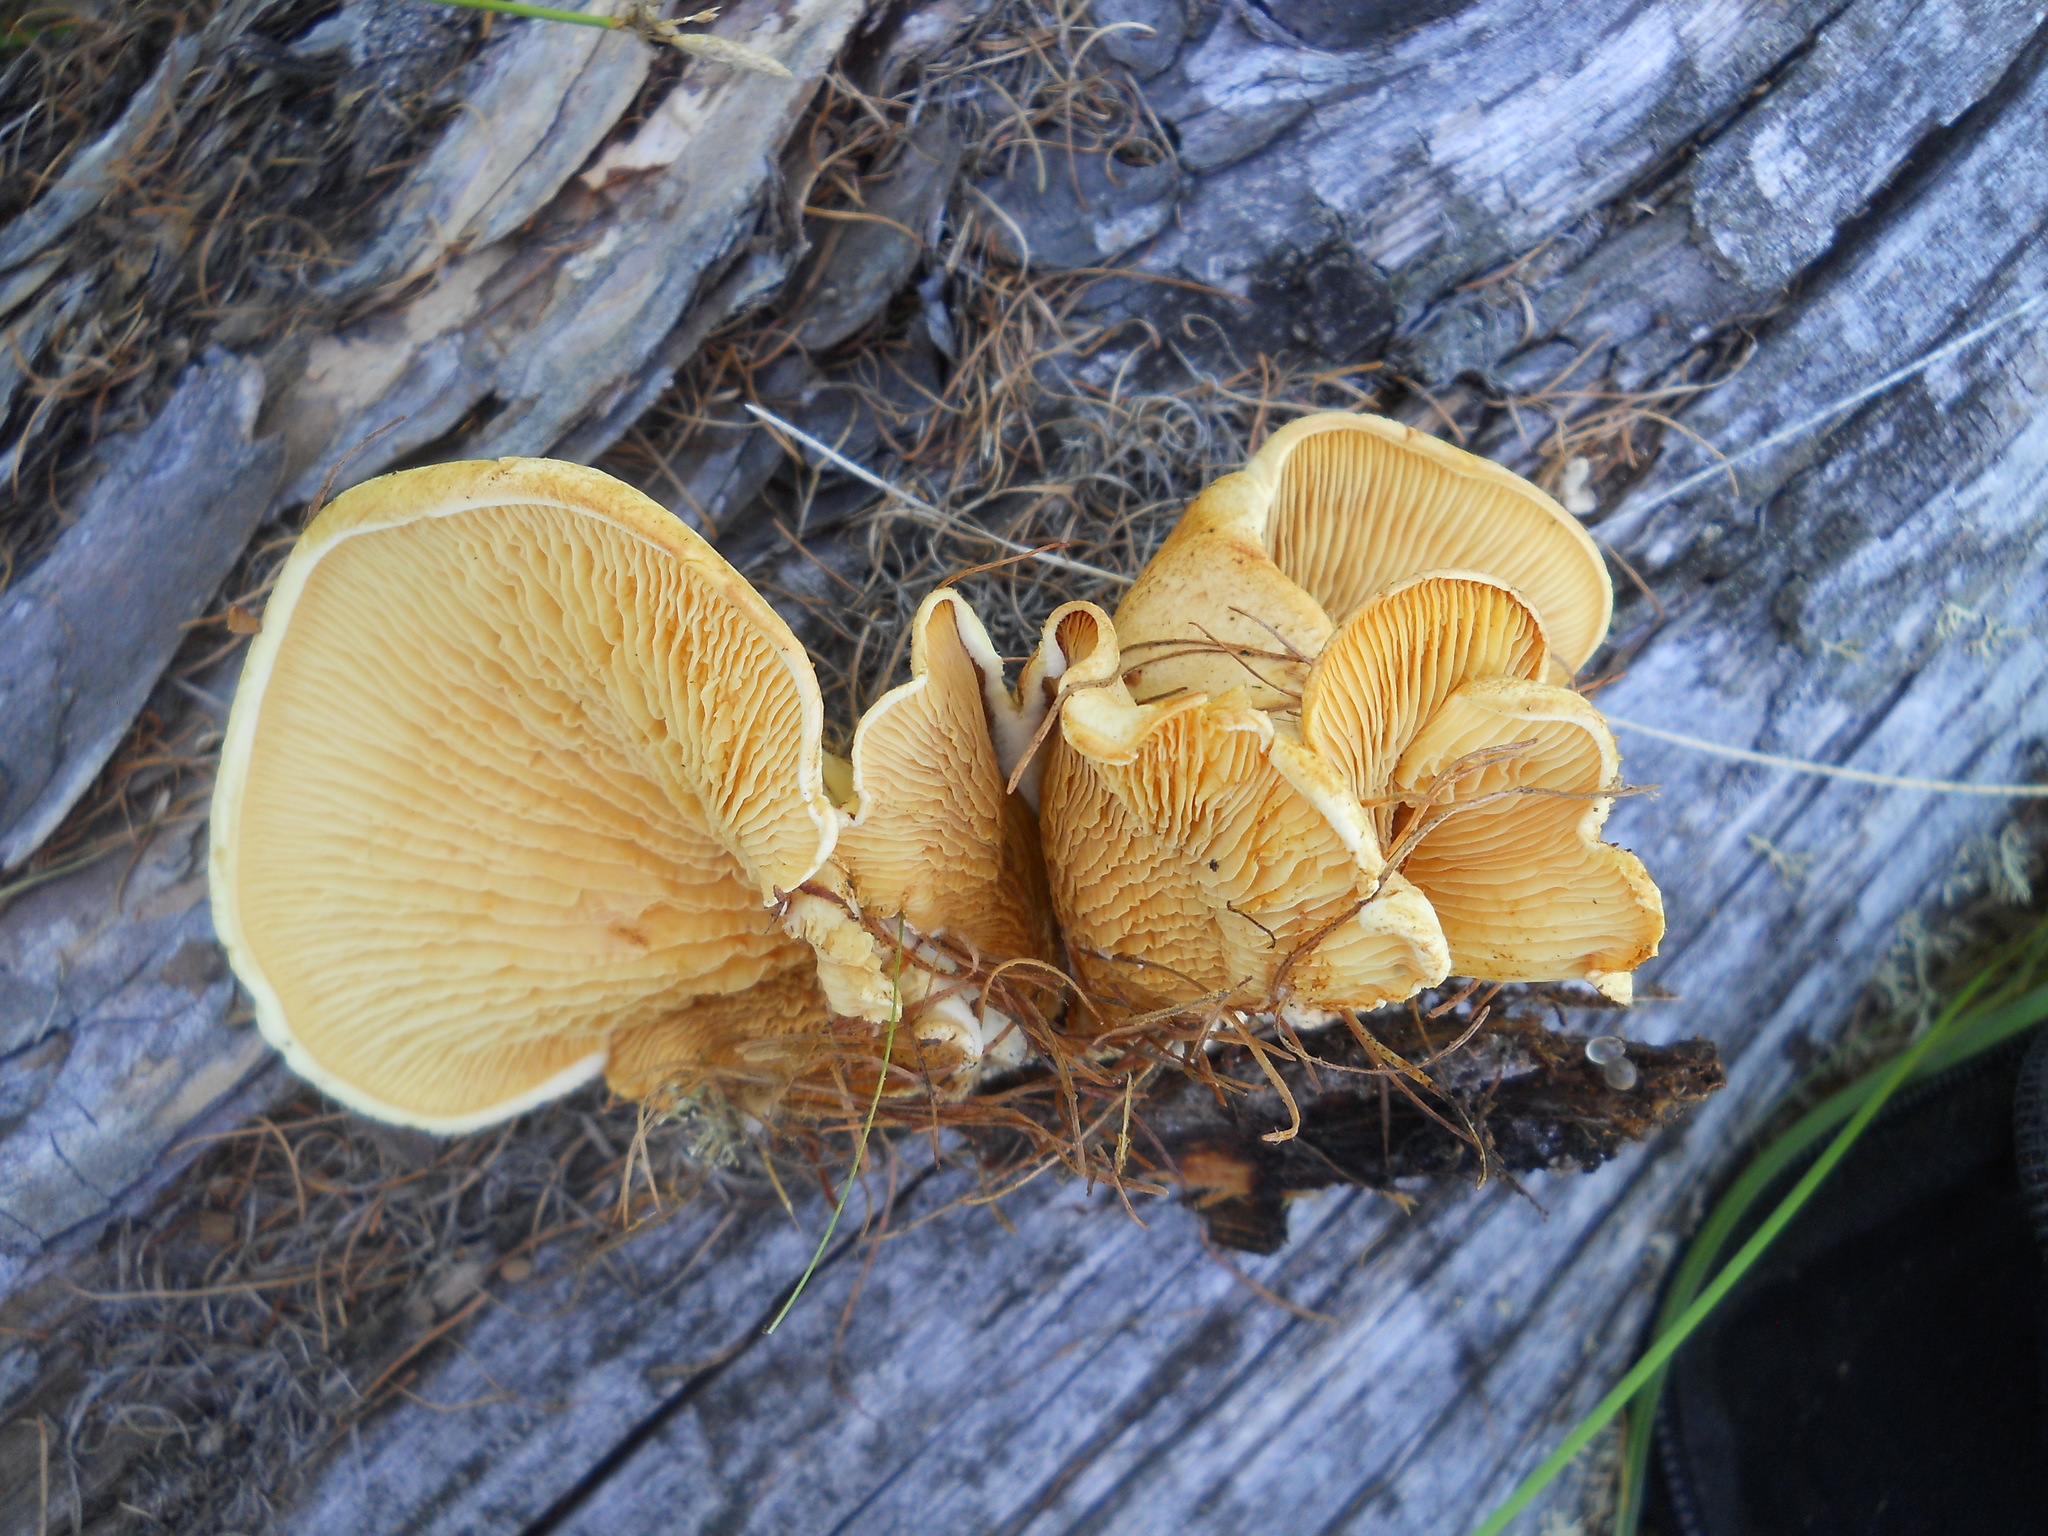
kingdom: Fungi
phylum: Basidiomycota
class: Agaricomycetes
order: Agaricales
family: Phyllotopsidaceae
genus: Phyllotopsis
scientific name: Phyllotopsis nidulans
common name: Orange mock oyster
